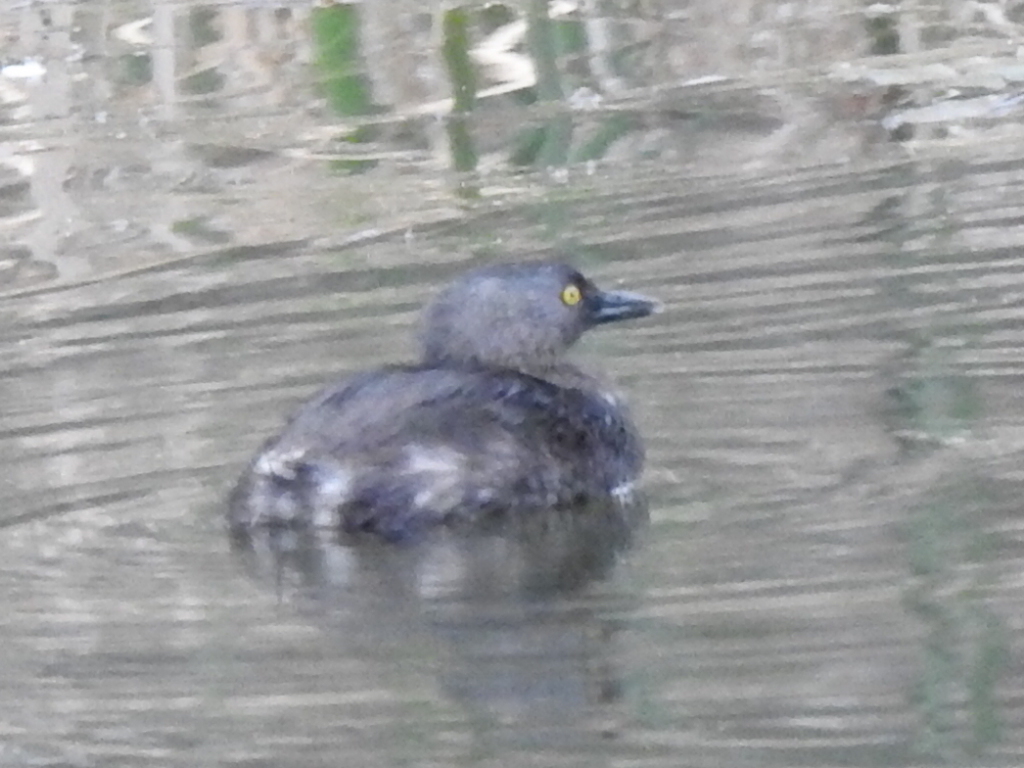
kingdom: Animalia
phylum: Chordata
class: Aves
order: Podicipediformes
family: Podicipedidae
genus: Tachybaptus
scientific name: Tachybaptus dominicus
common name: Least grebe
